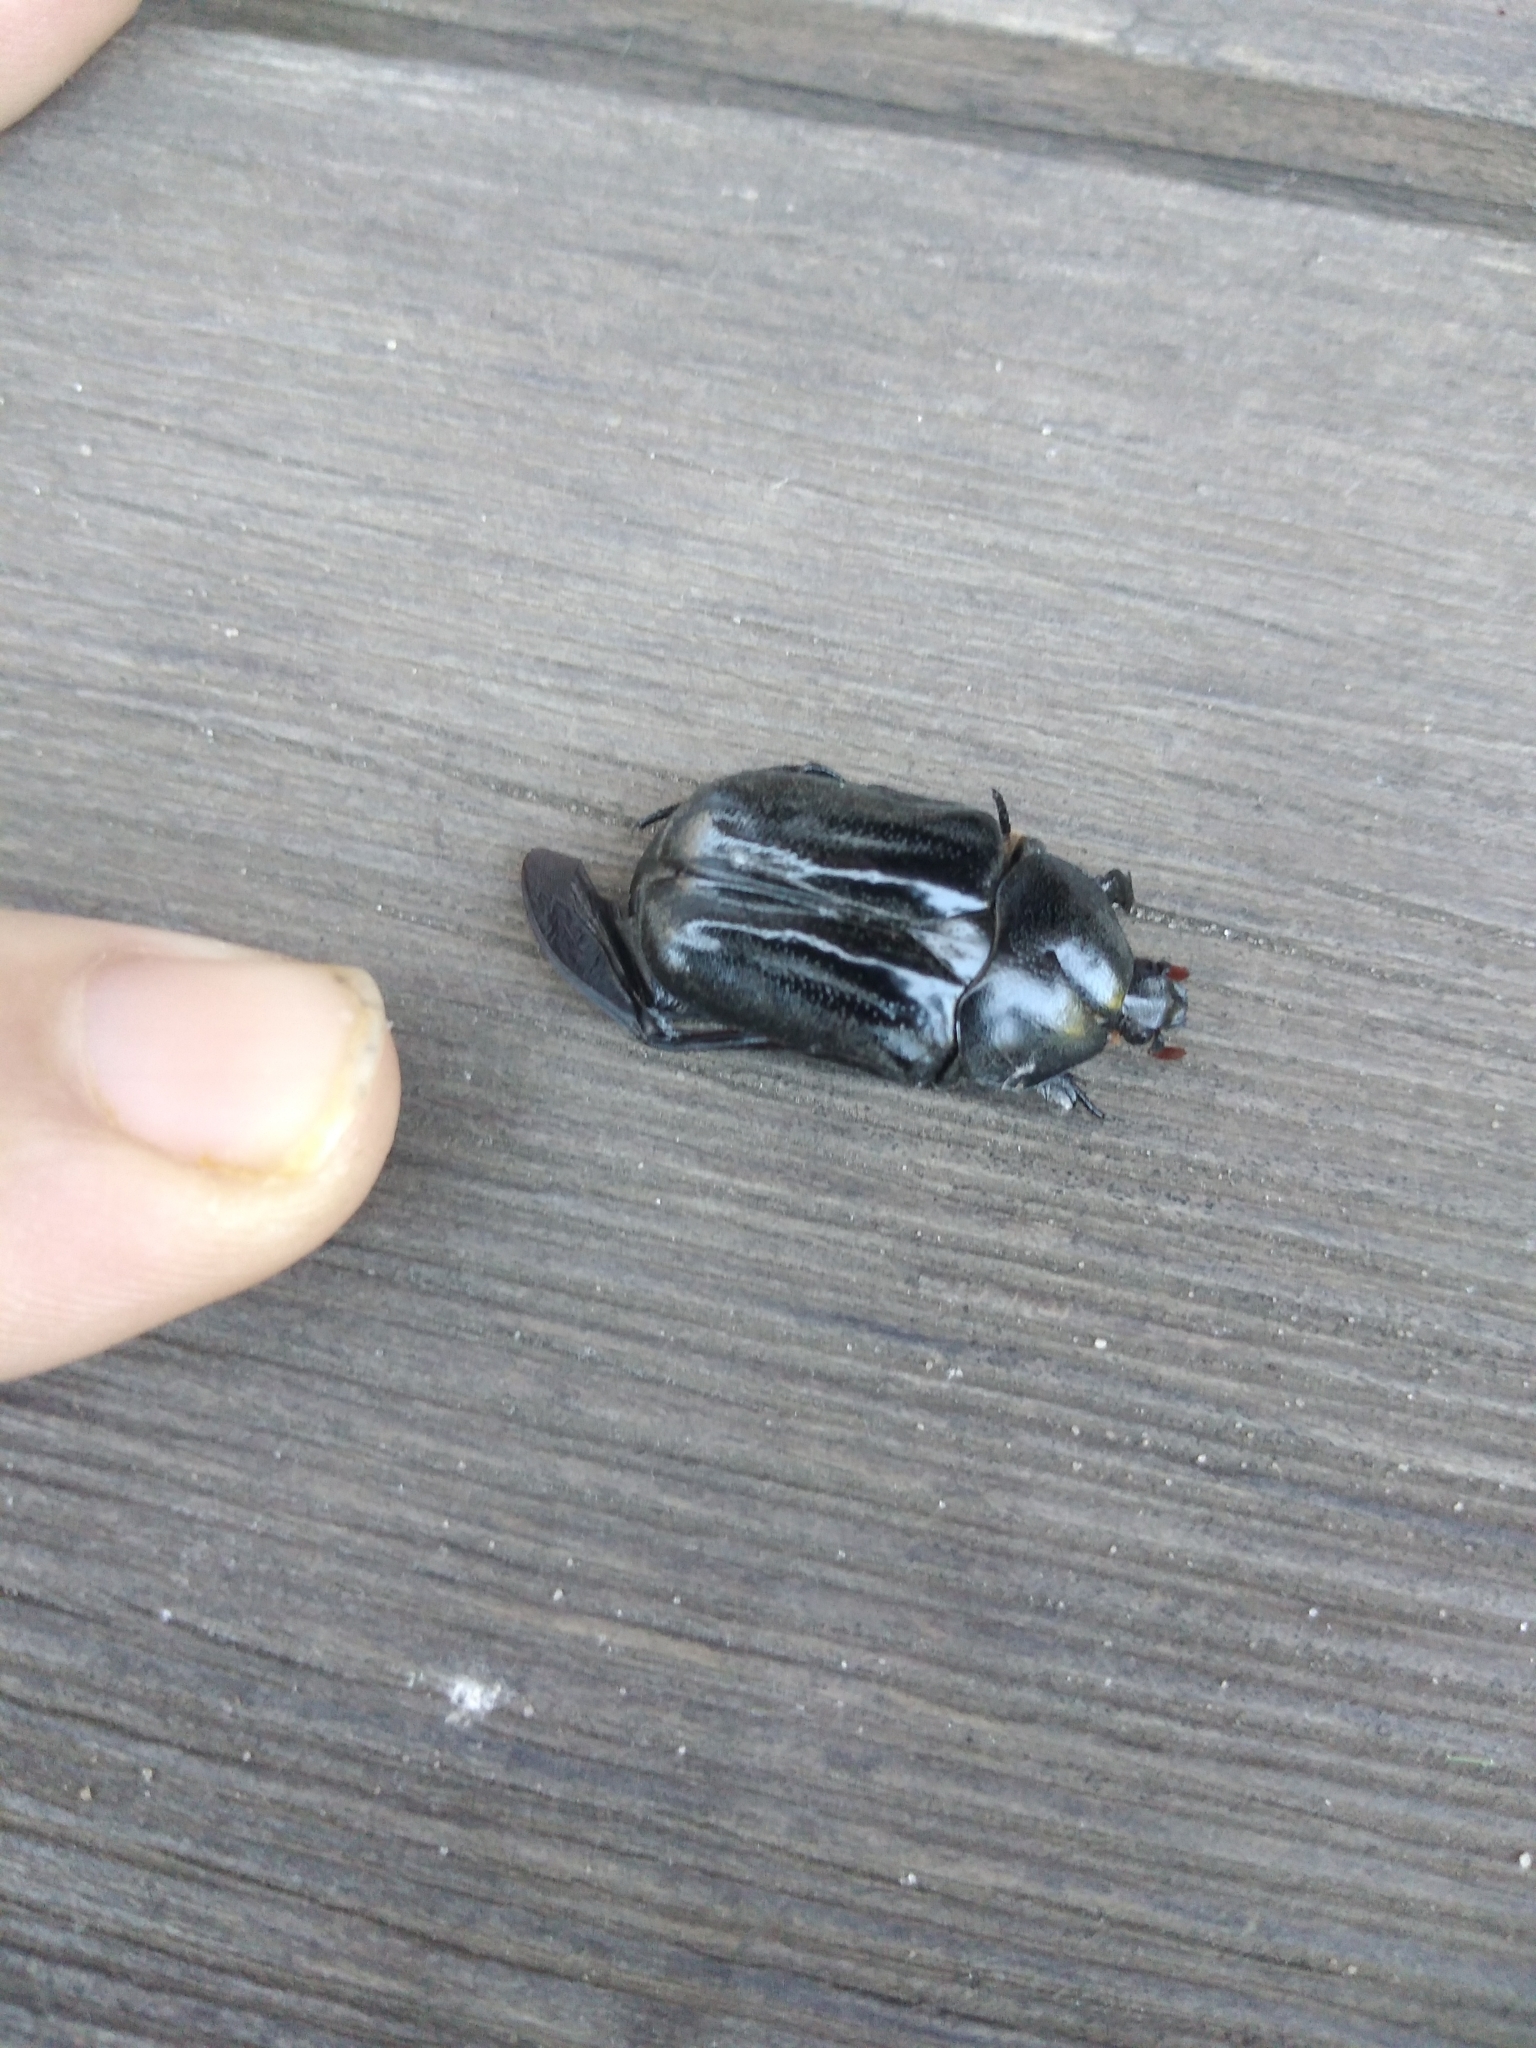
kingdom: Animalia
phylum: Arthropoda
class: Insecta
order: Coleoptera
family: Scarabaeidae
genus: Oplostomus
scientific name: Oplostomus fuligineus
